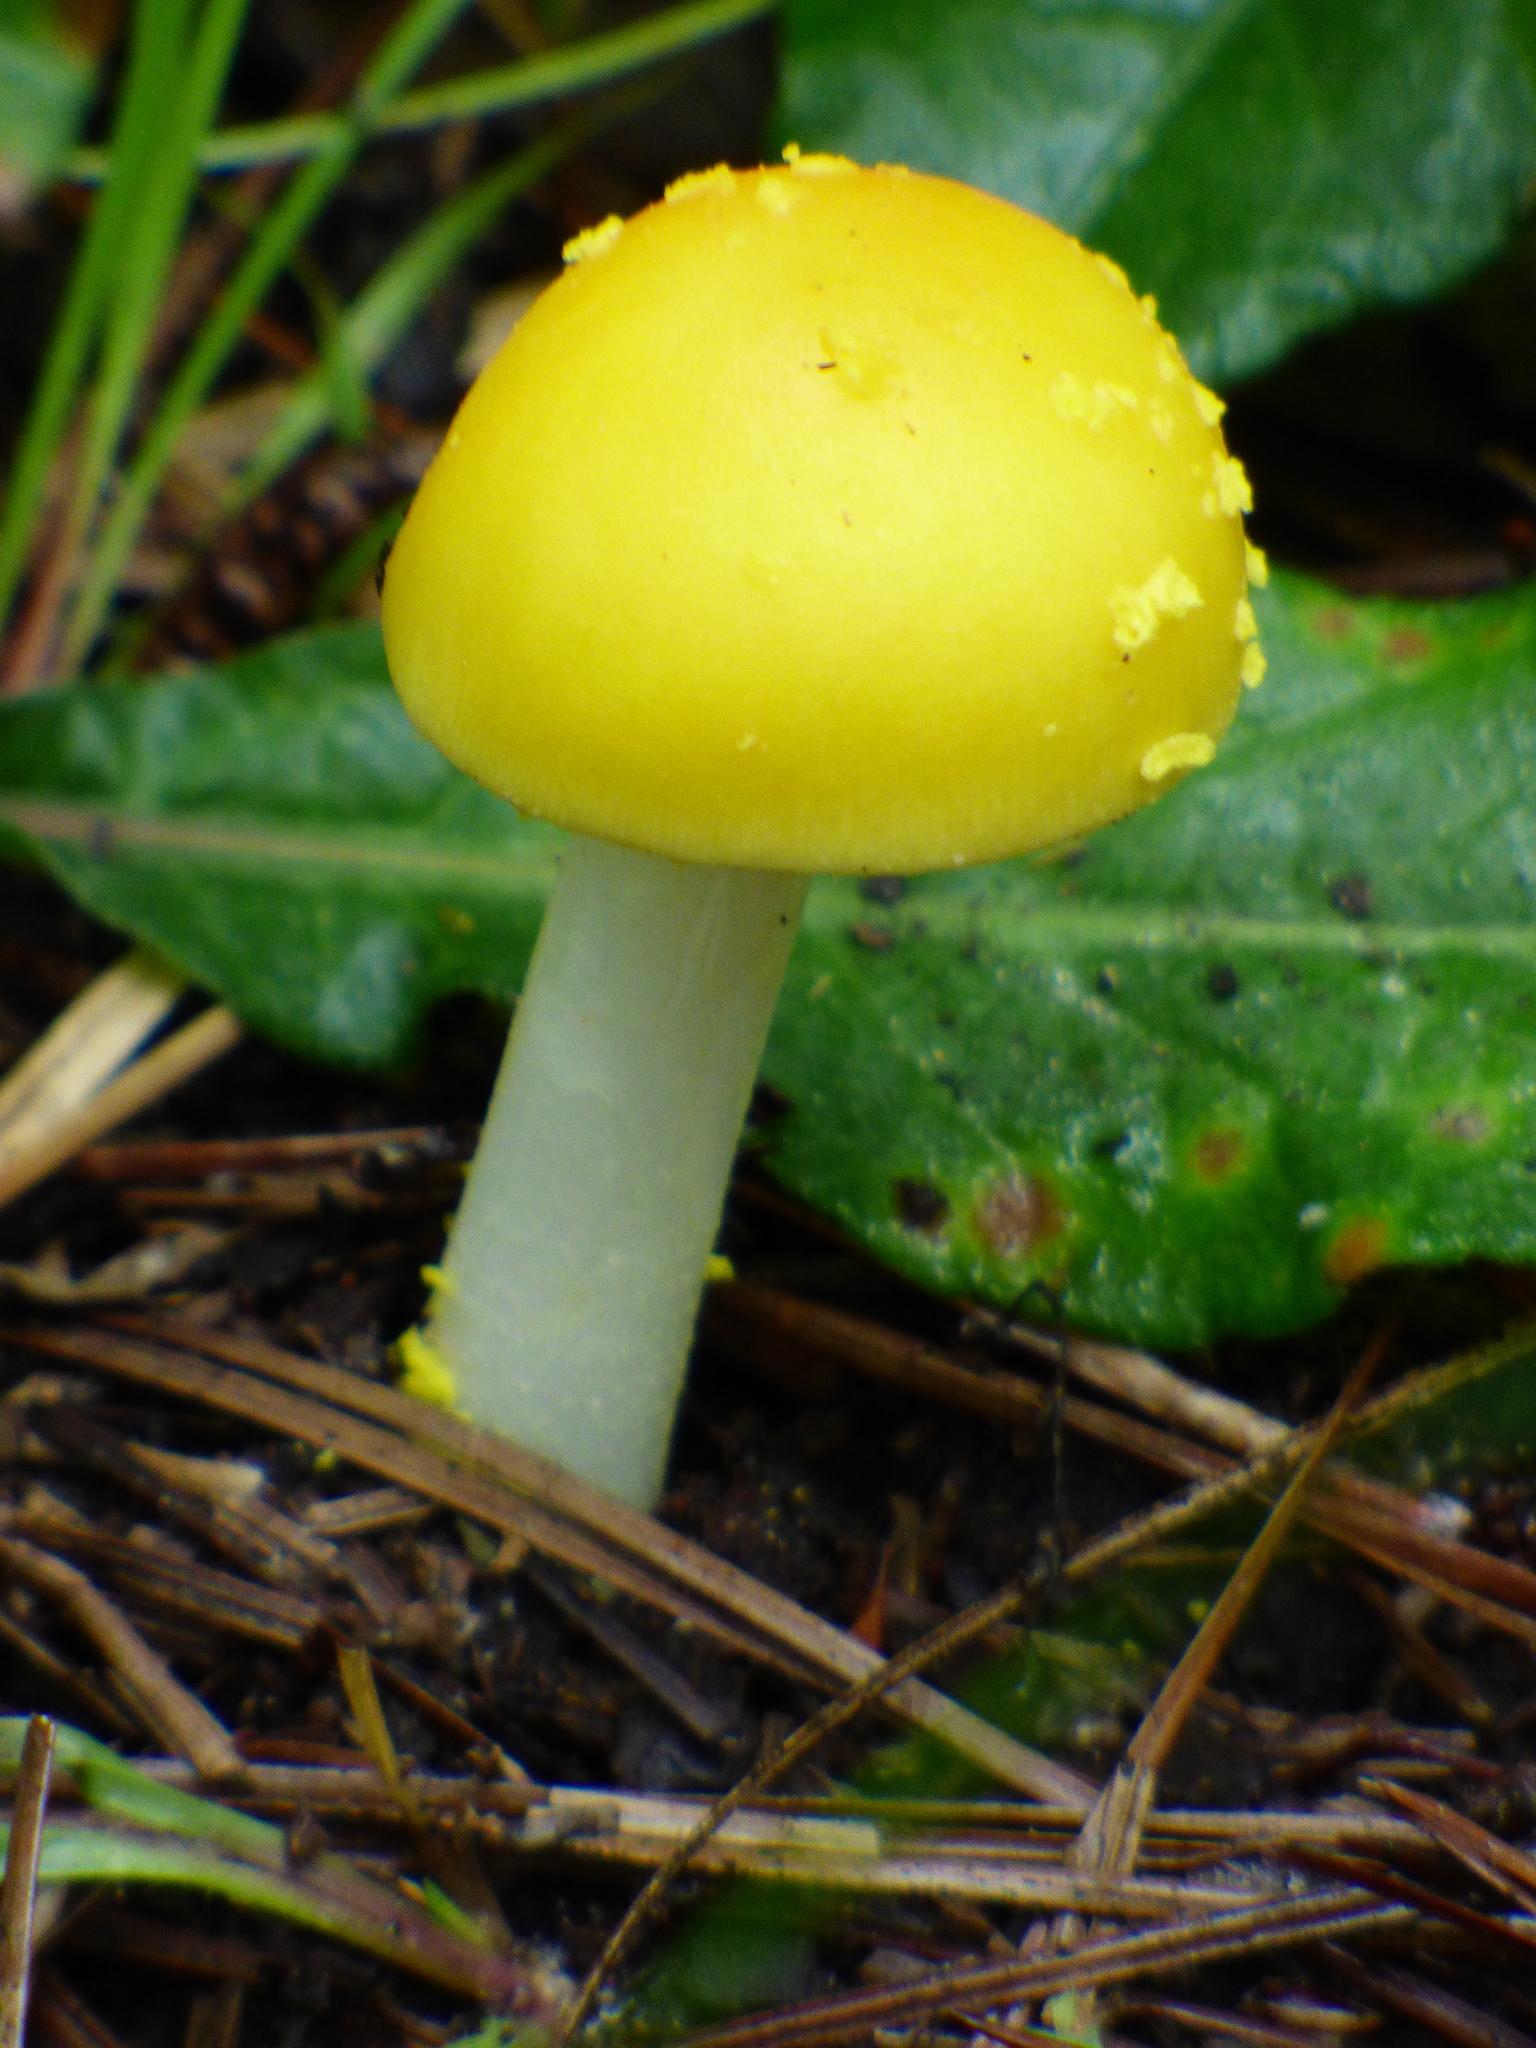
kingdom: Fungi
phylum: Basidiomycota
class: Agaricomycetes
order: Agaricales
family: Amanitaceae
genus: Amanita
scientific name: Amanita flavoconia
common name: Yellow patches
